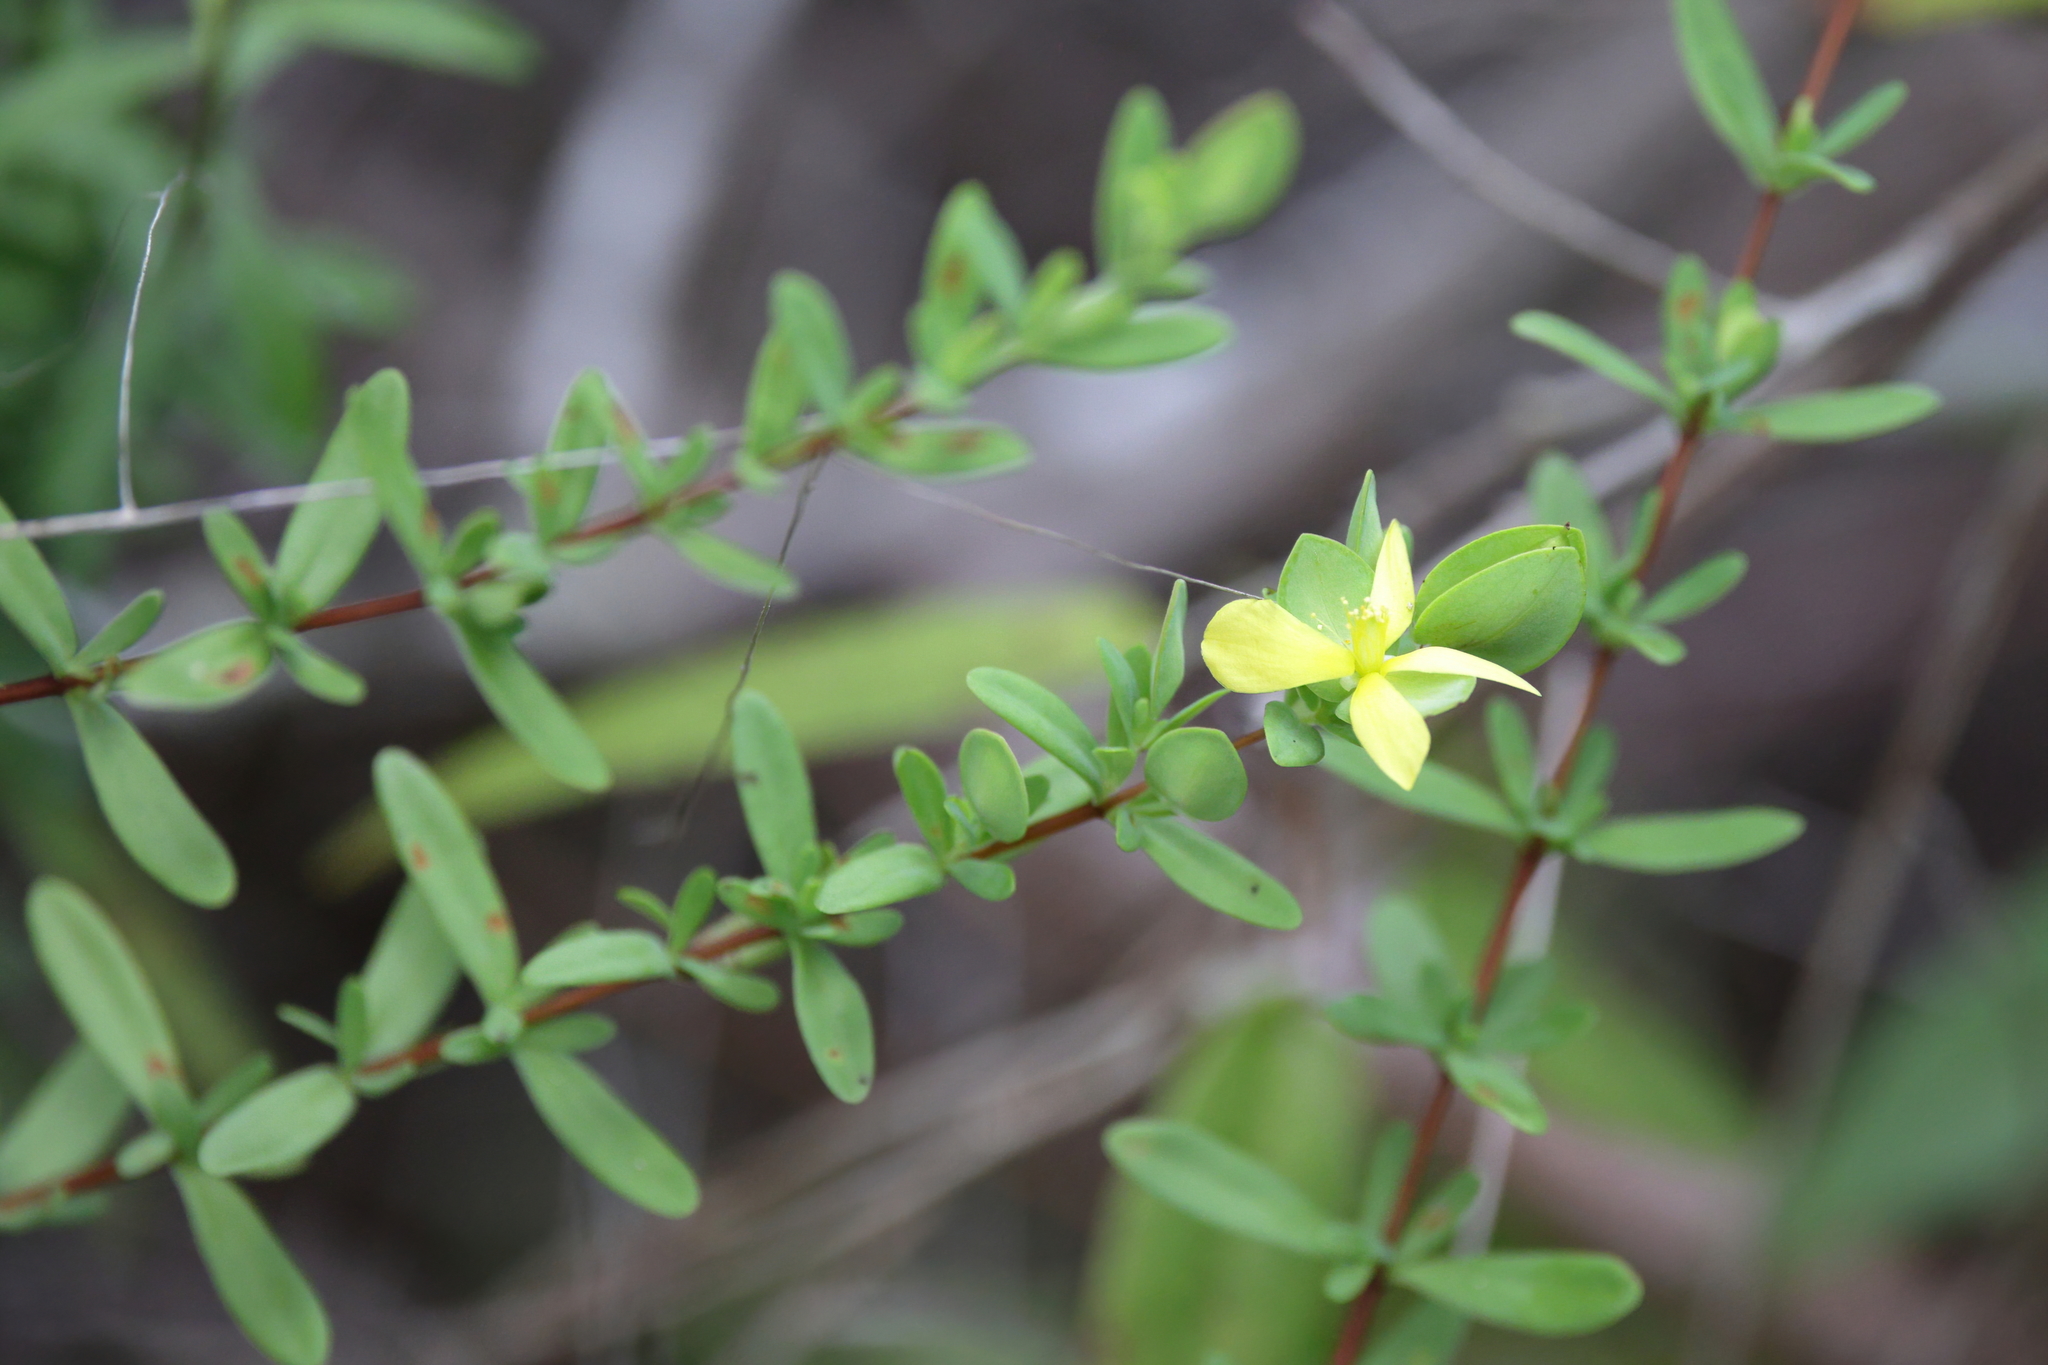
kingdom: Plantae
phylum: Tracheophyta
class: Magnoliopsida
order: Malpighiales
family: Hypericaceae
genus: Hypericum
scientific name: Hypericum hypericoides
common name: St. andrew's cross
